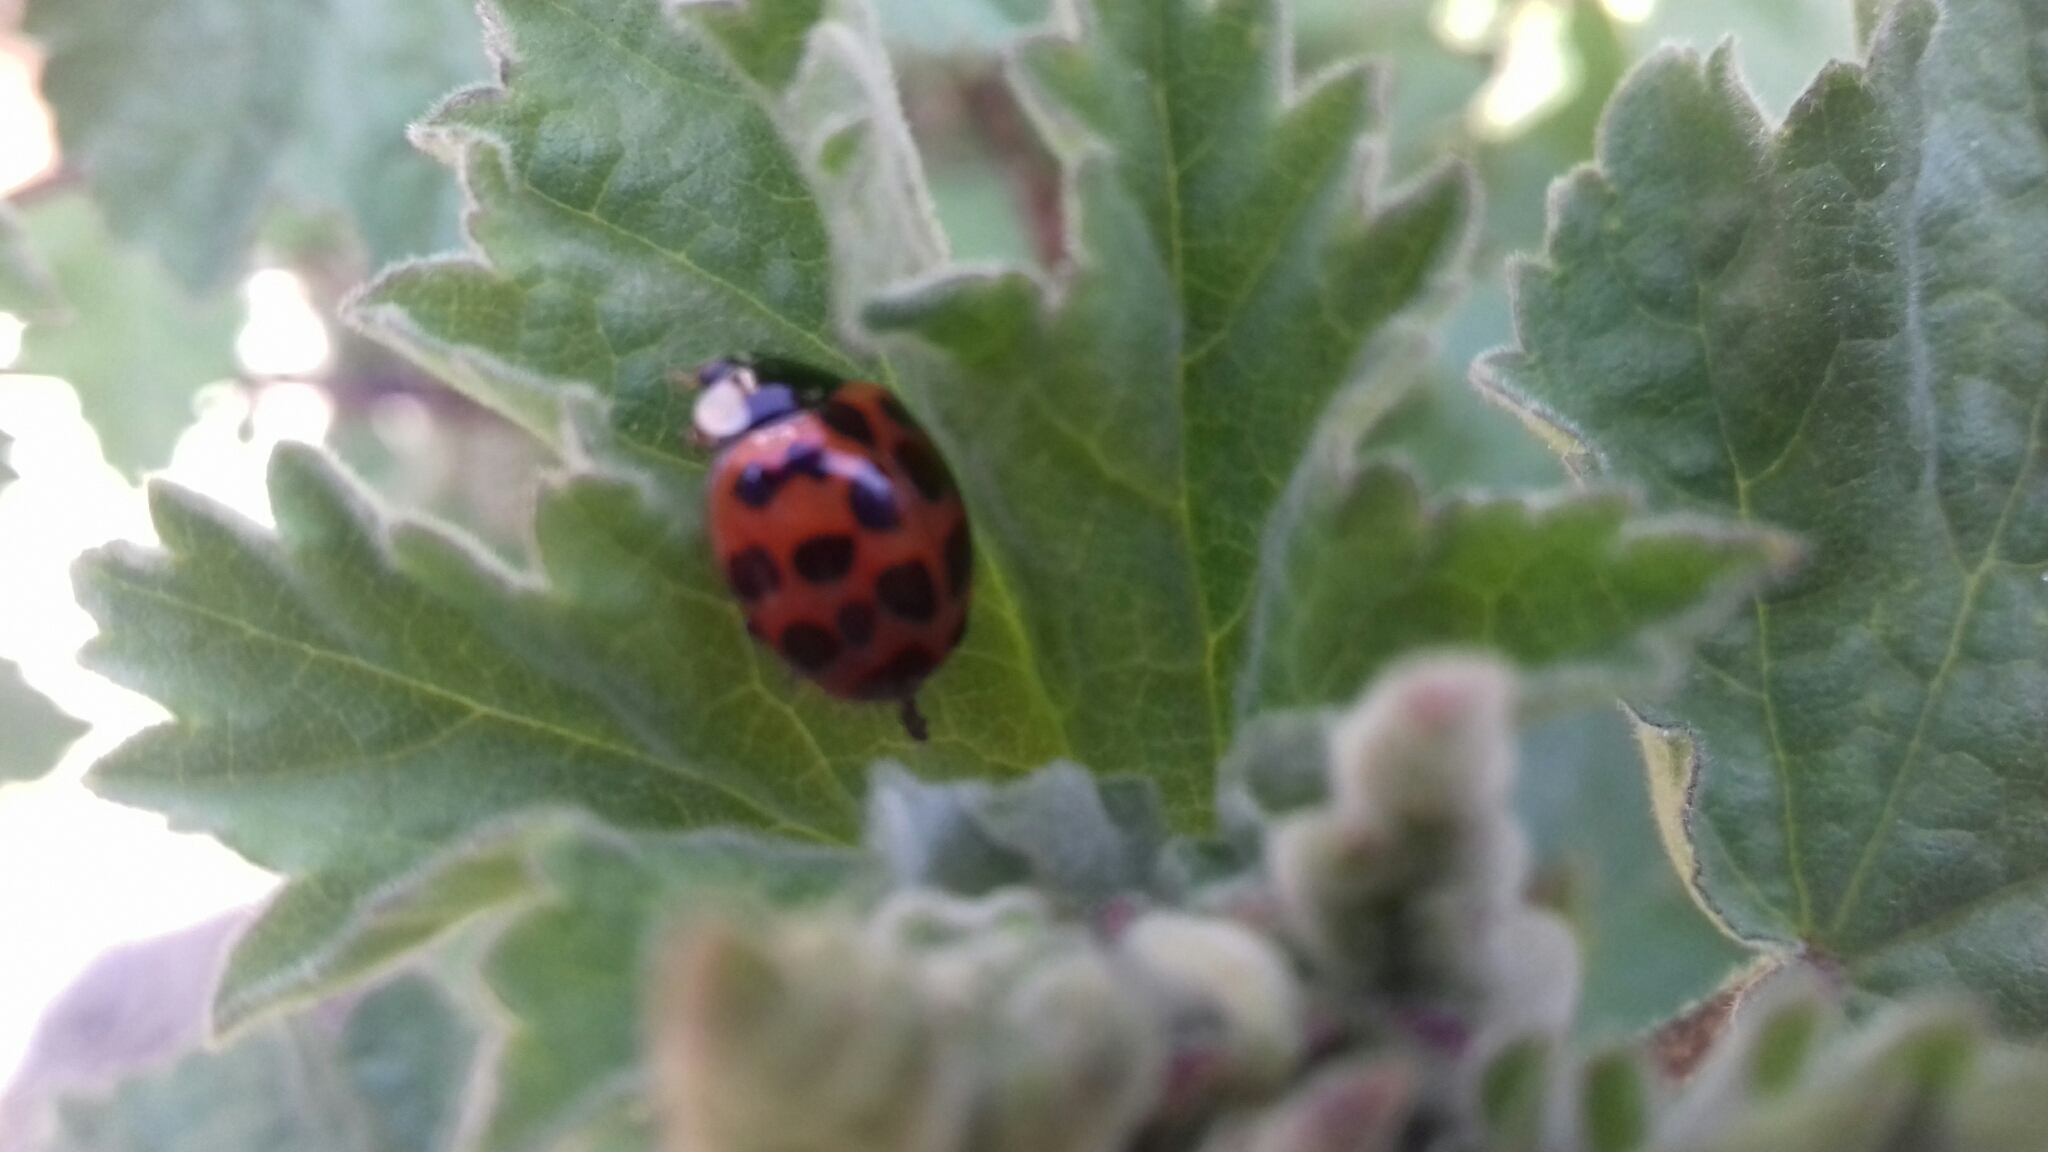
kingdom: Animalia
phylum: Arthropoda
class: Insecta
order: Coleoptera
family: Coccinellidae
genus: Harmonia
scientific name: Harmonia axyridis
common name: Harlequin ladybird
